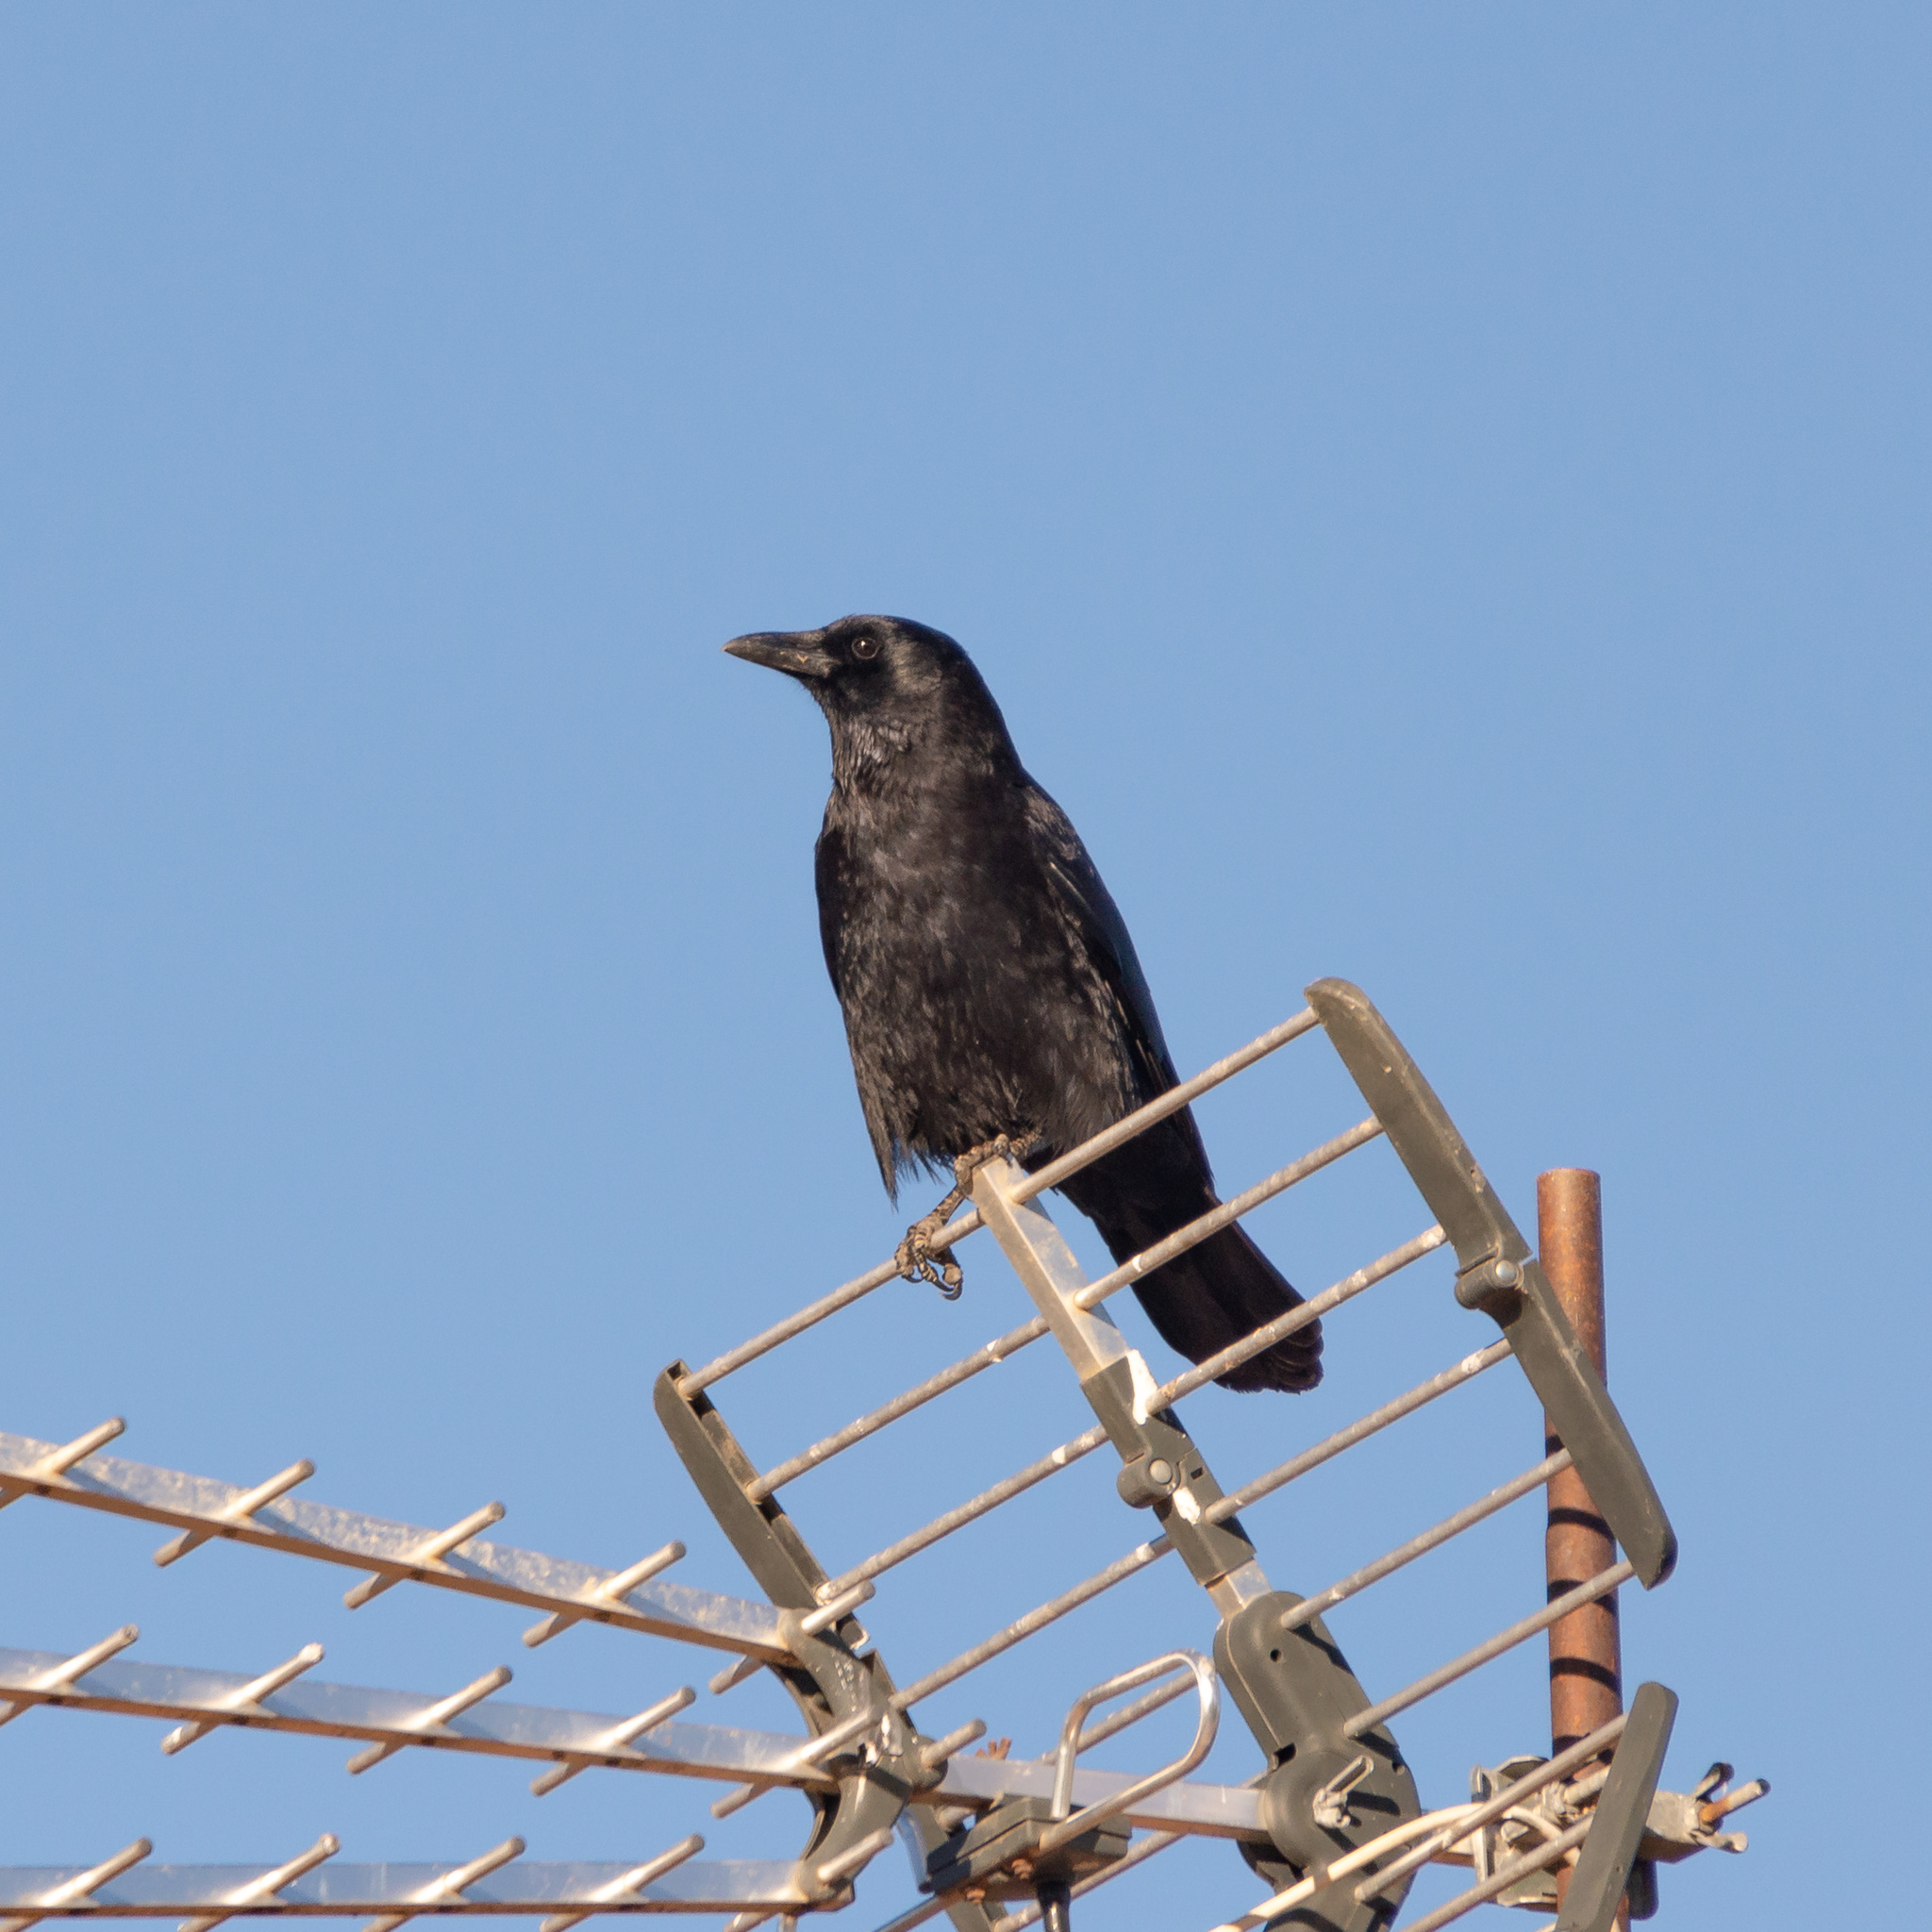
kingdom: Animalia
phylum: Chordata
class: Aves
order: Passeriformes
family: Corvidae
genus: Corvus
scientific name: Corvus corone
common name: Carrion crow
